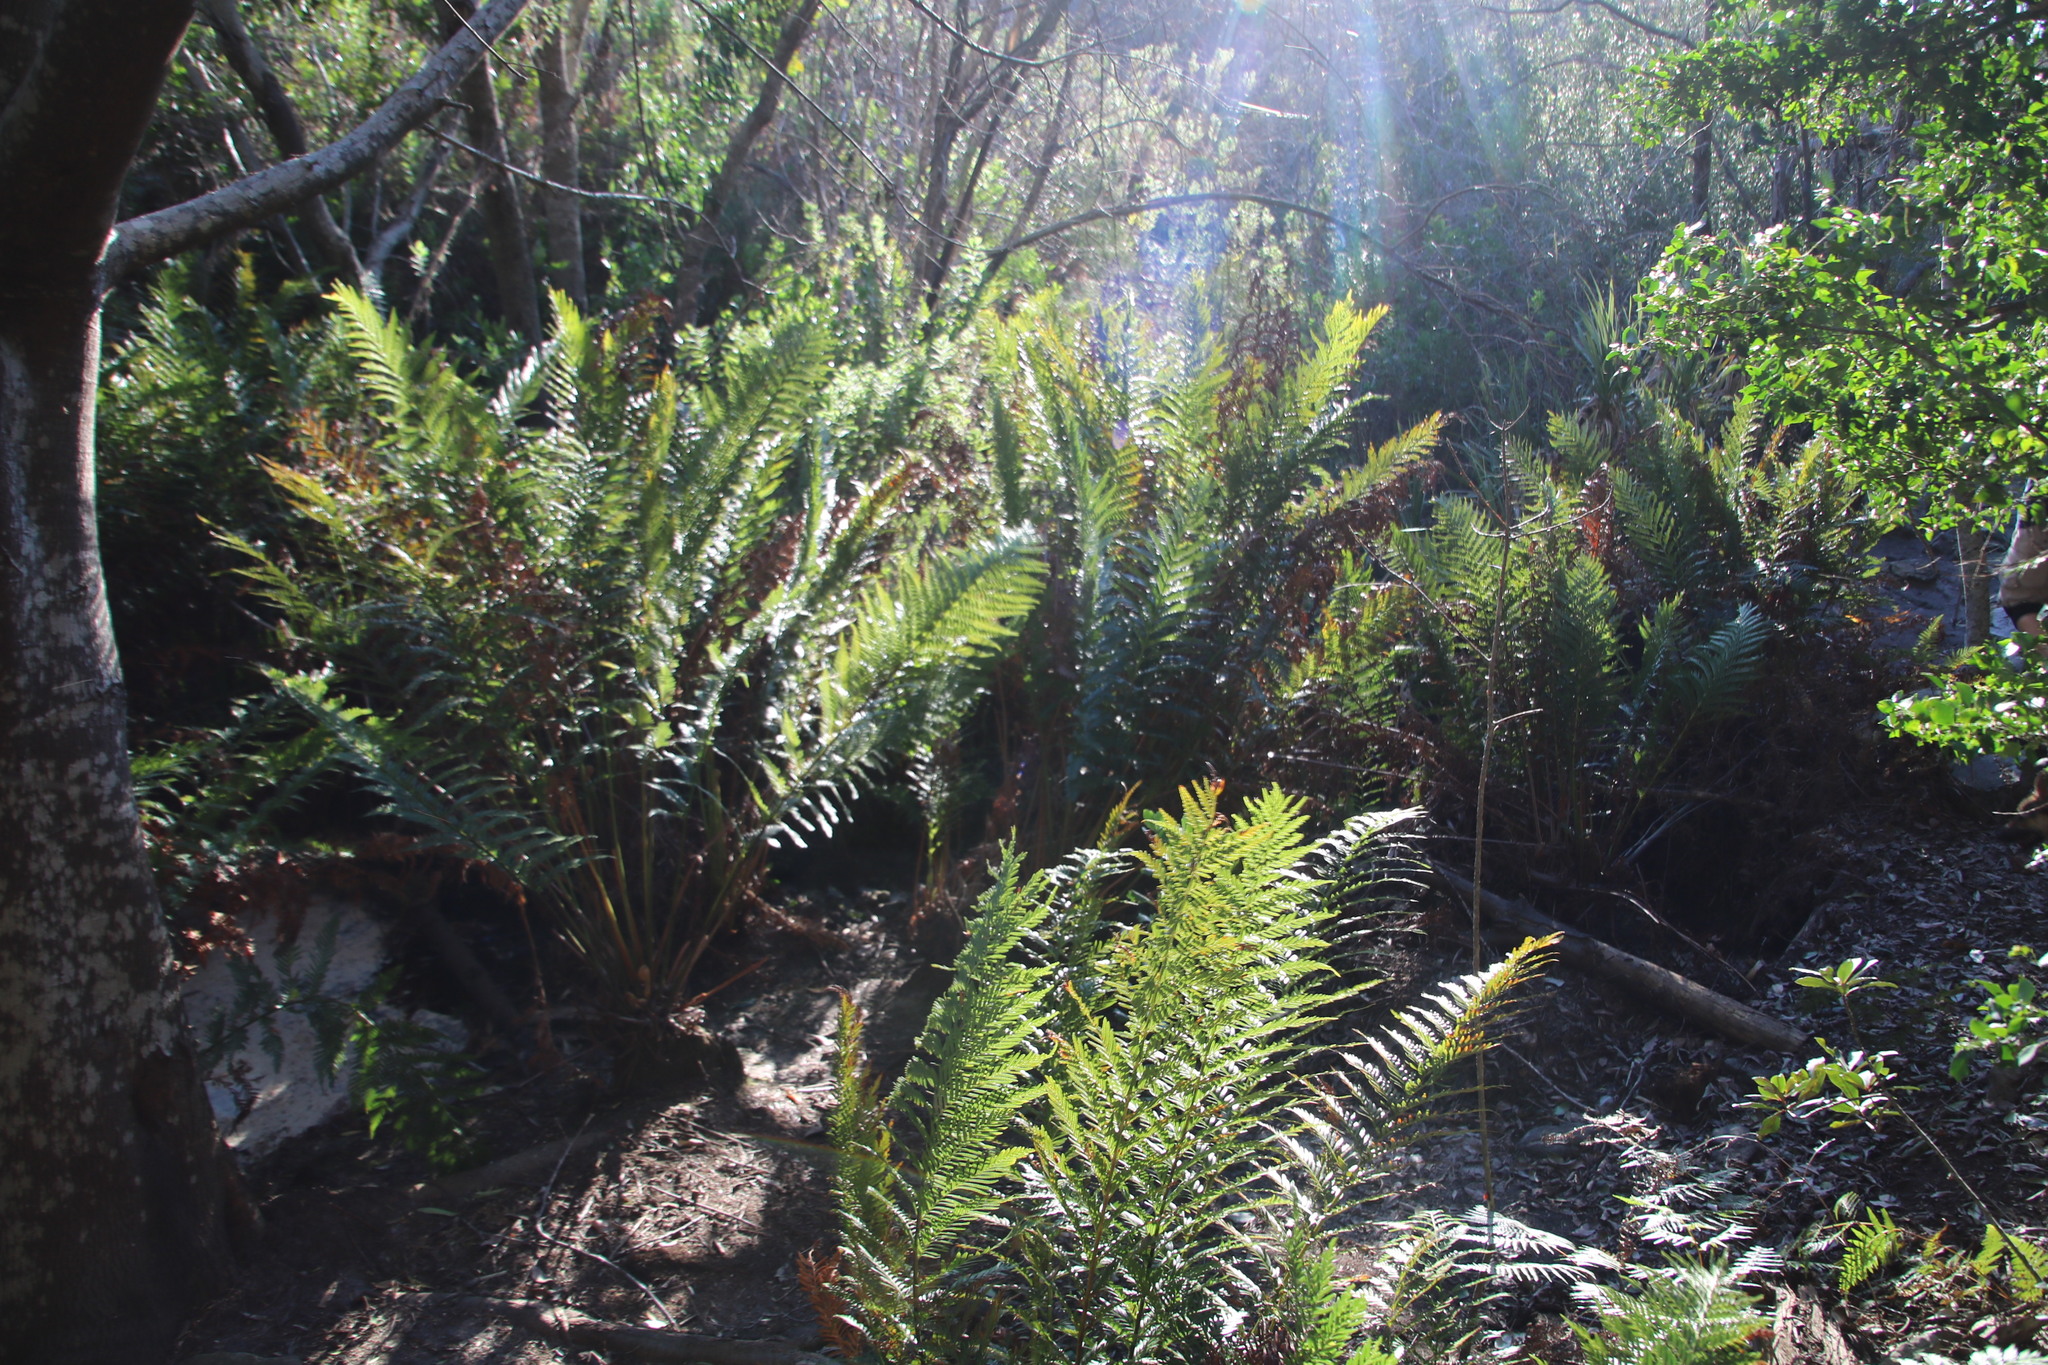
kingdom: Plantae
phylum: Tracheophyta
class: Polypodiopsida
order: Osmundales
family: Osmundaceae
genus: Todea
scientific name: Todea barbara
